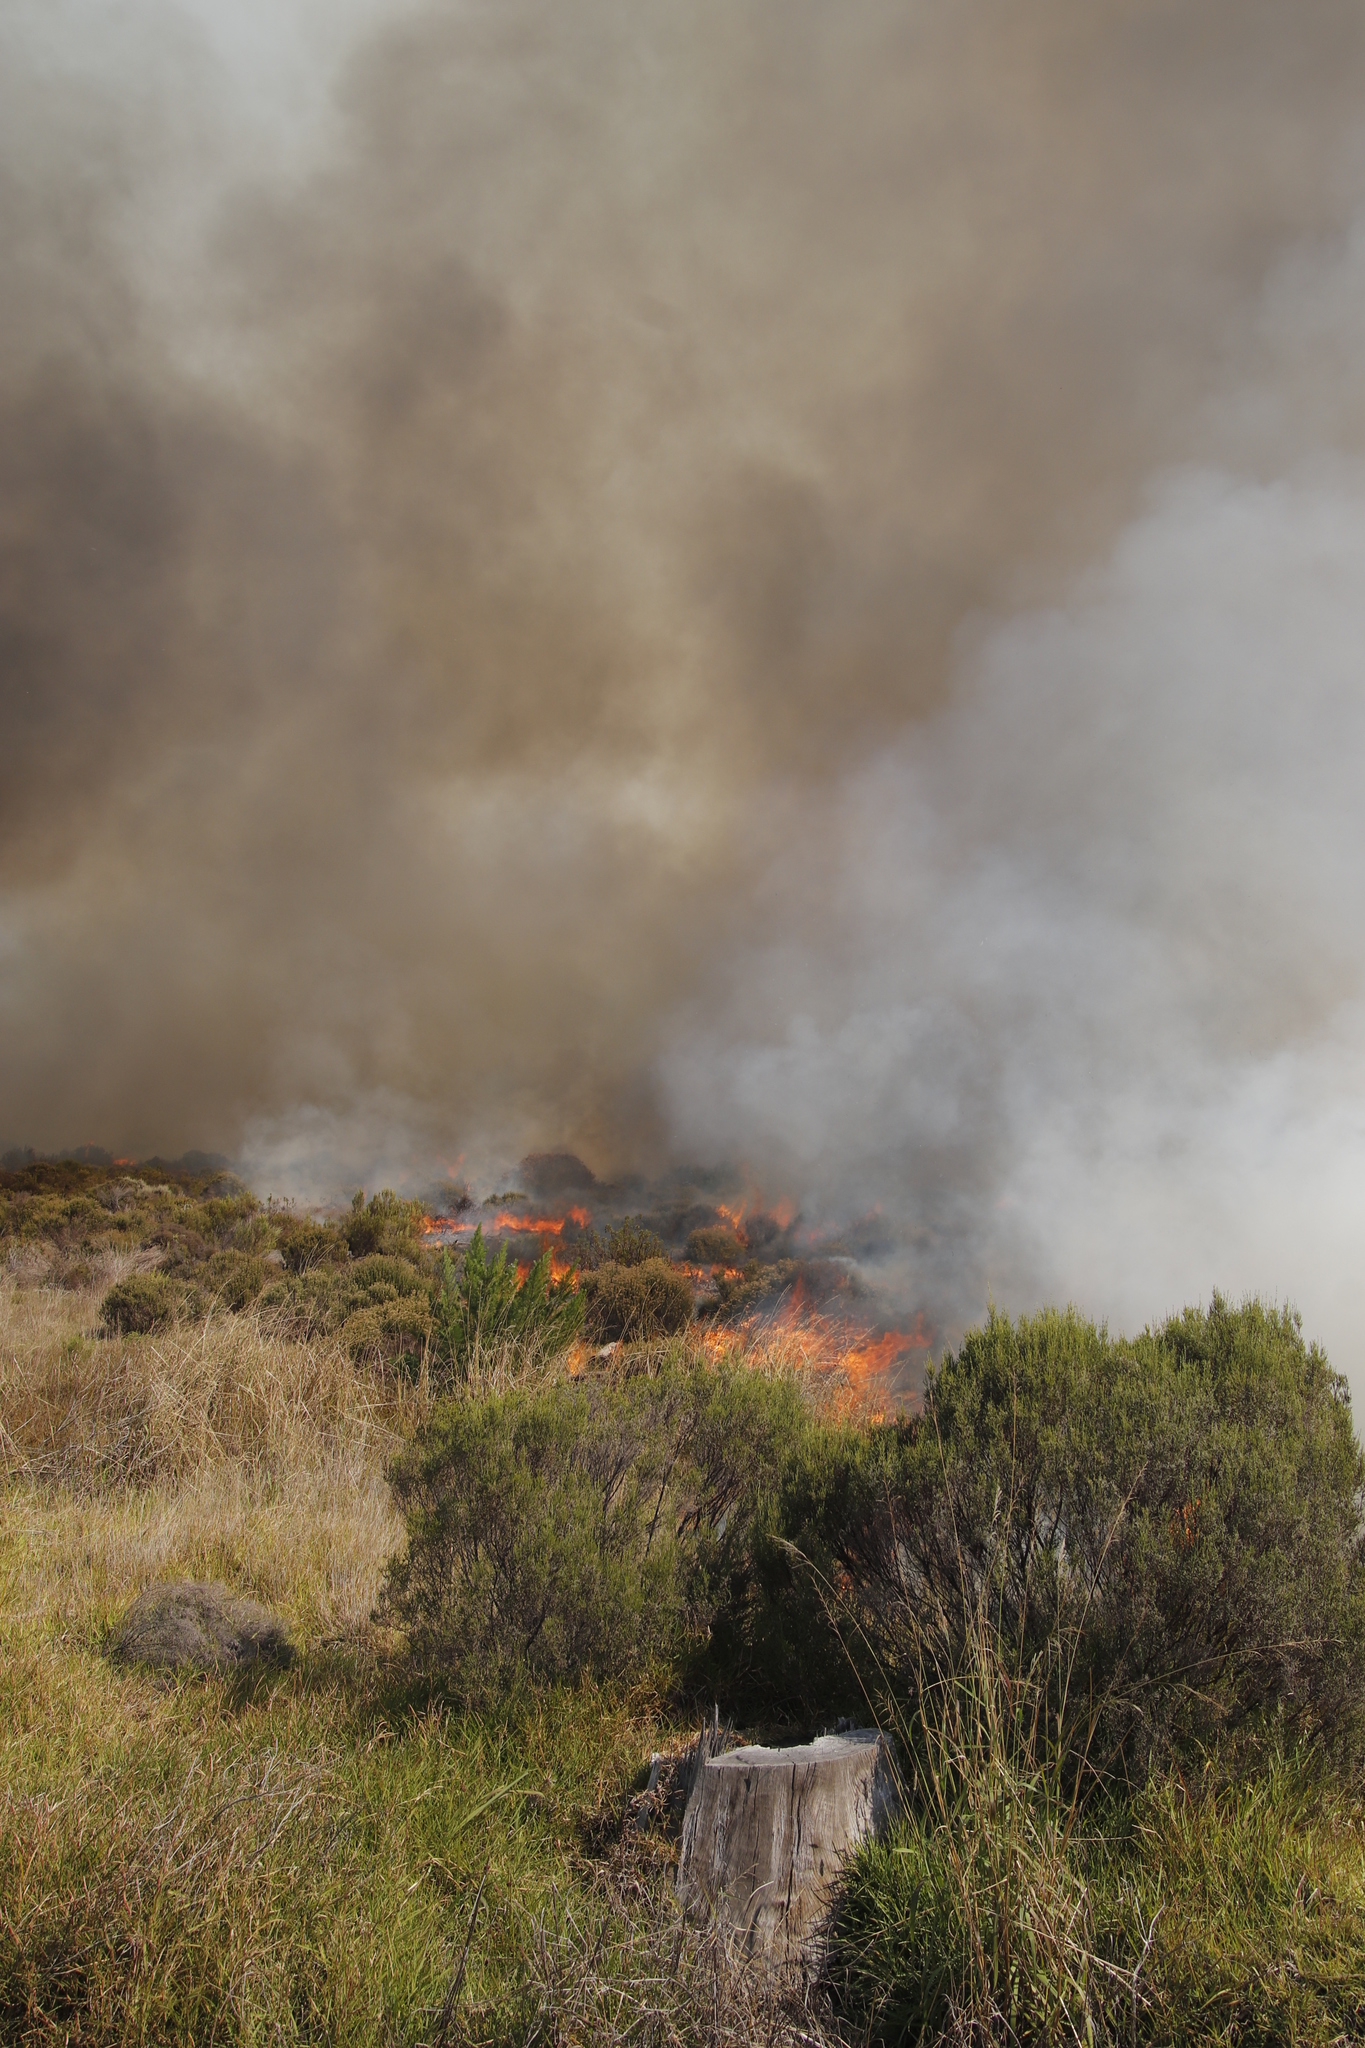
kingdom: Plantae
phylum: Tracheophyta
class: Magnoliopsida
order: Malvales
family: Thymelaeaceae
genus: Passerina
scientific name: Passerina corymbosa
